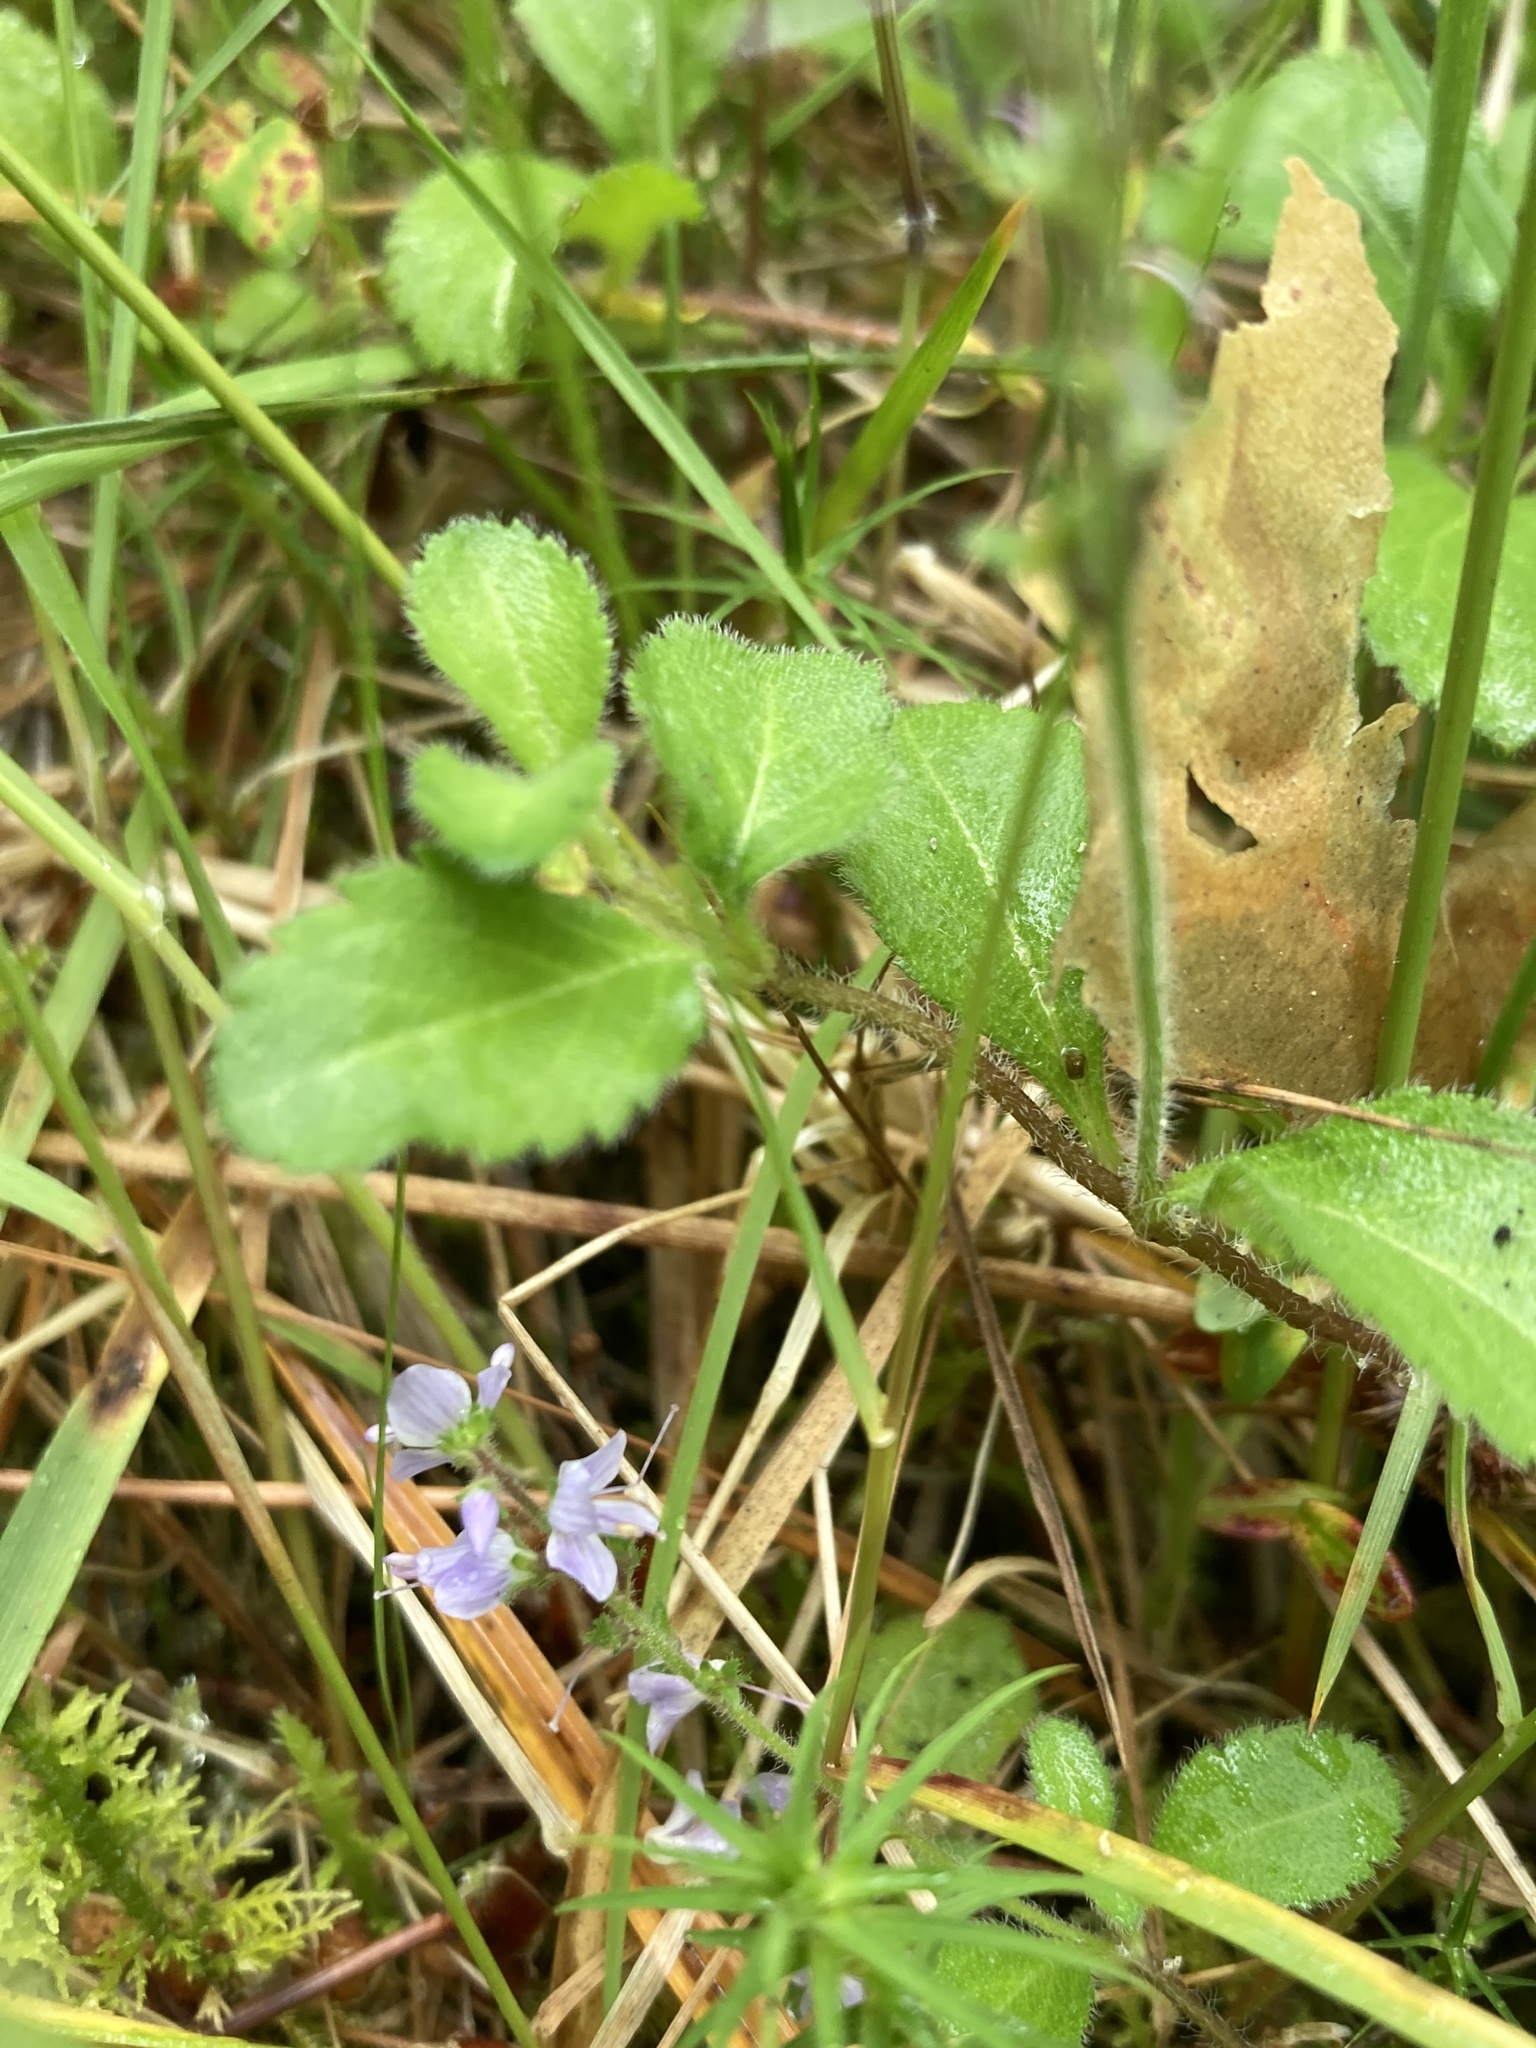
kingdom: Plantae
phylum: Tracheophyta
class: Magnoliopsida
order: Lamiales
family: Plantaginaceae
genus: Veronica
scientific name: Veronica officinalis
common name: Common speedwell
